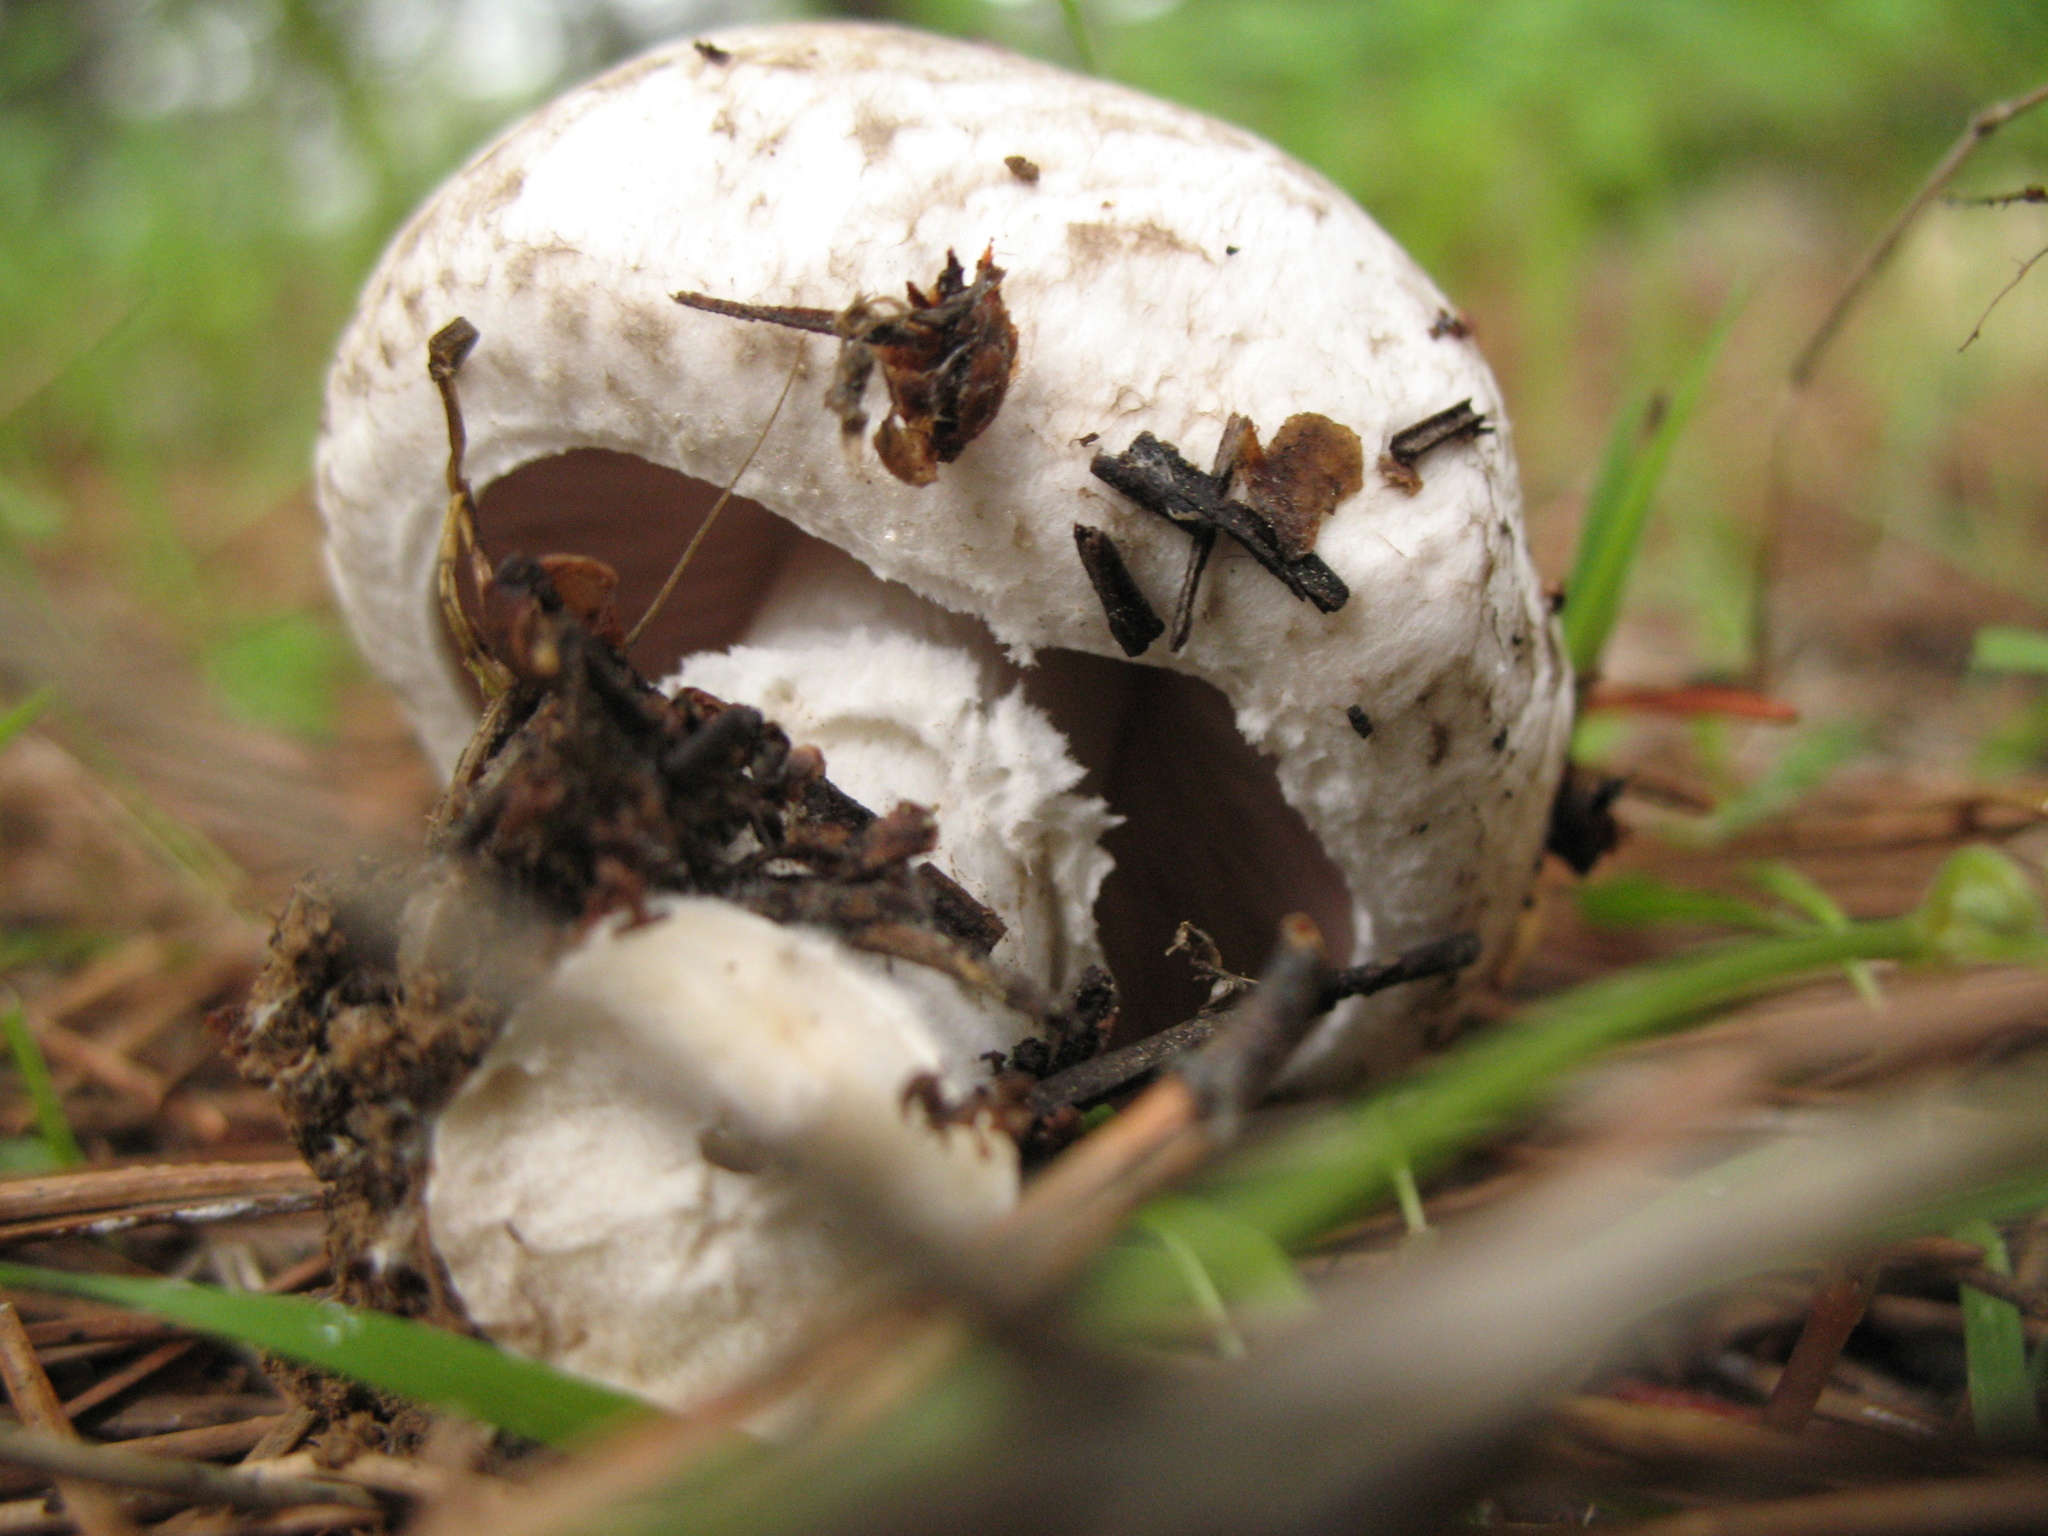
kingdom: Fungi
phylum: Basidiomycota
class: Agaricomycetes
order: Agaricales
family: Agaricaceae
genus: Agaricus
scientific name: Agaricus xanthodermus
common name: Yellow stainer
